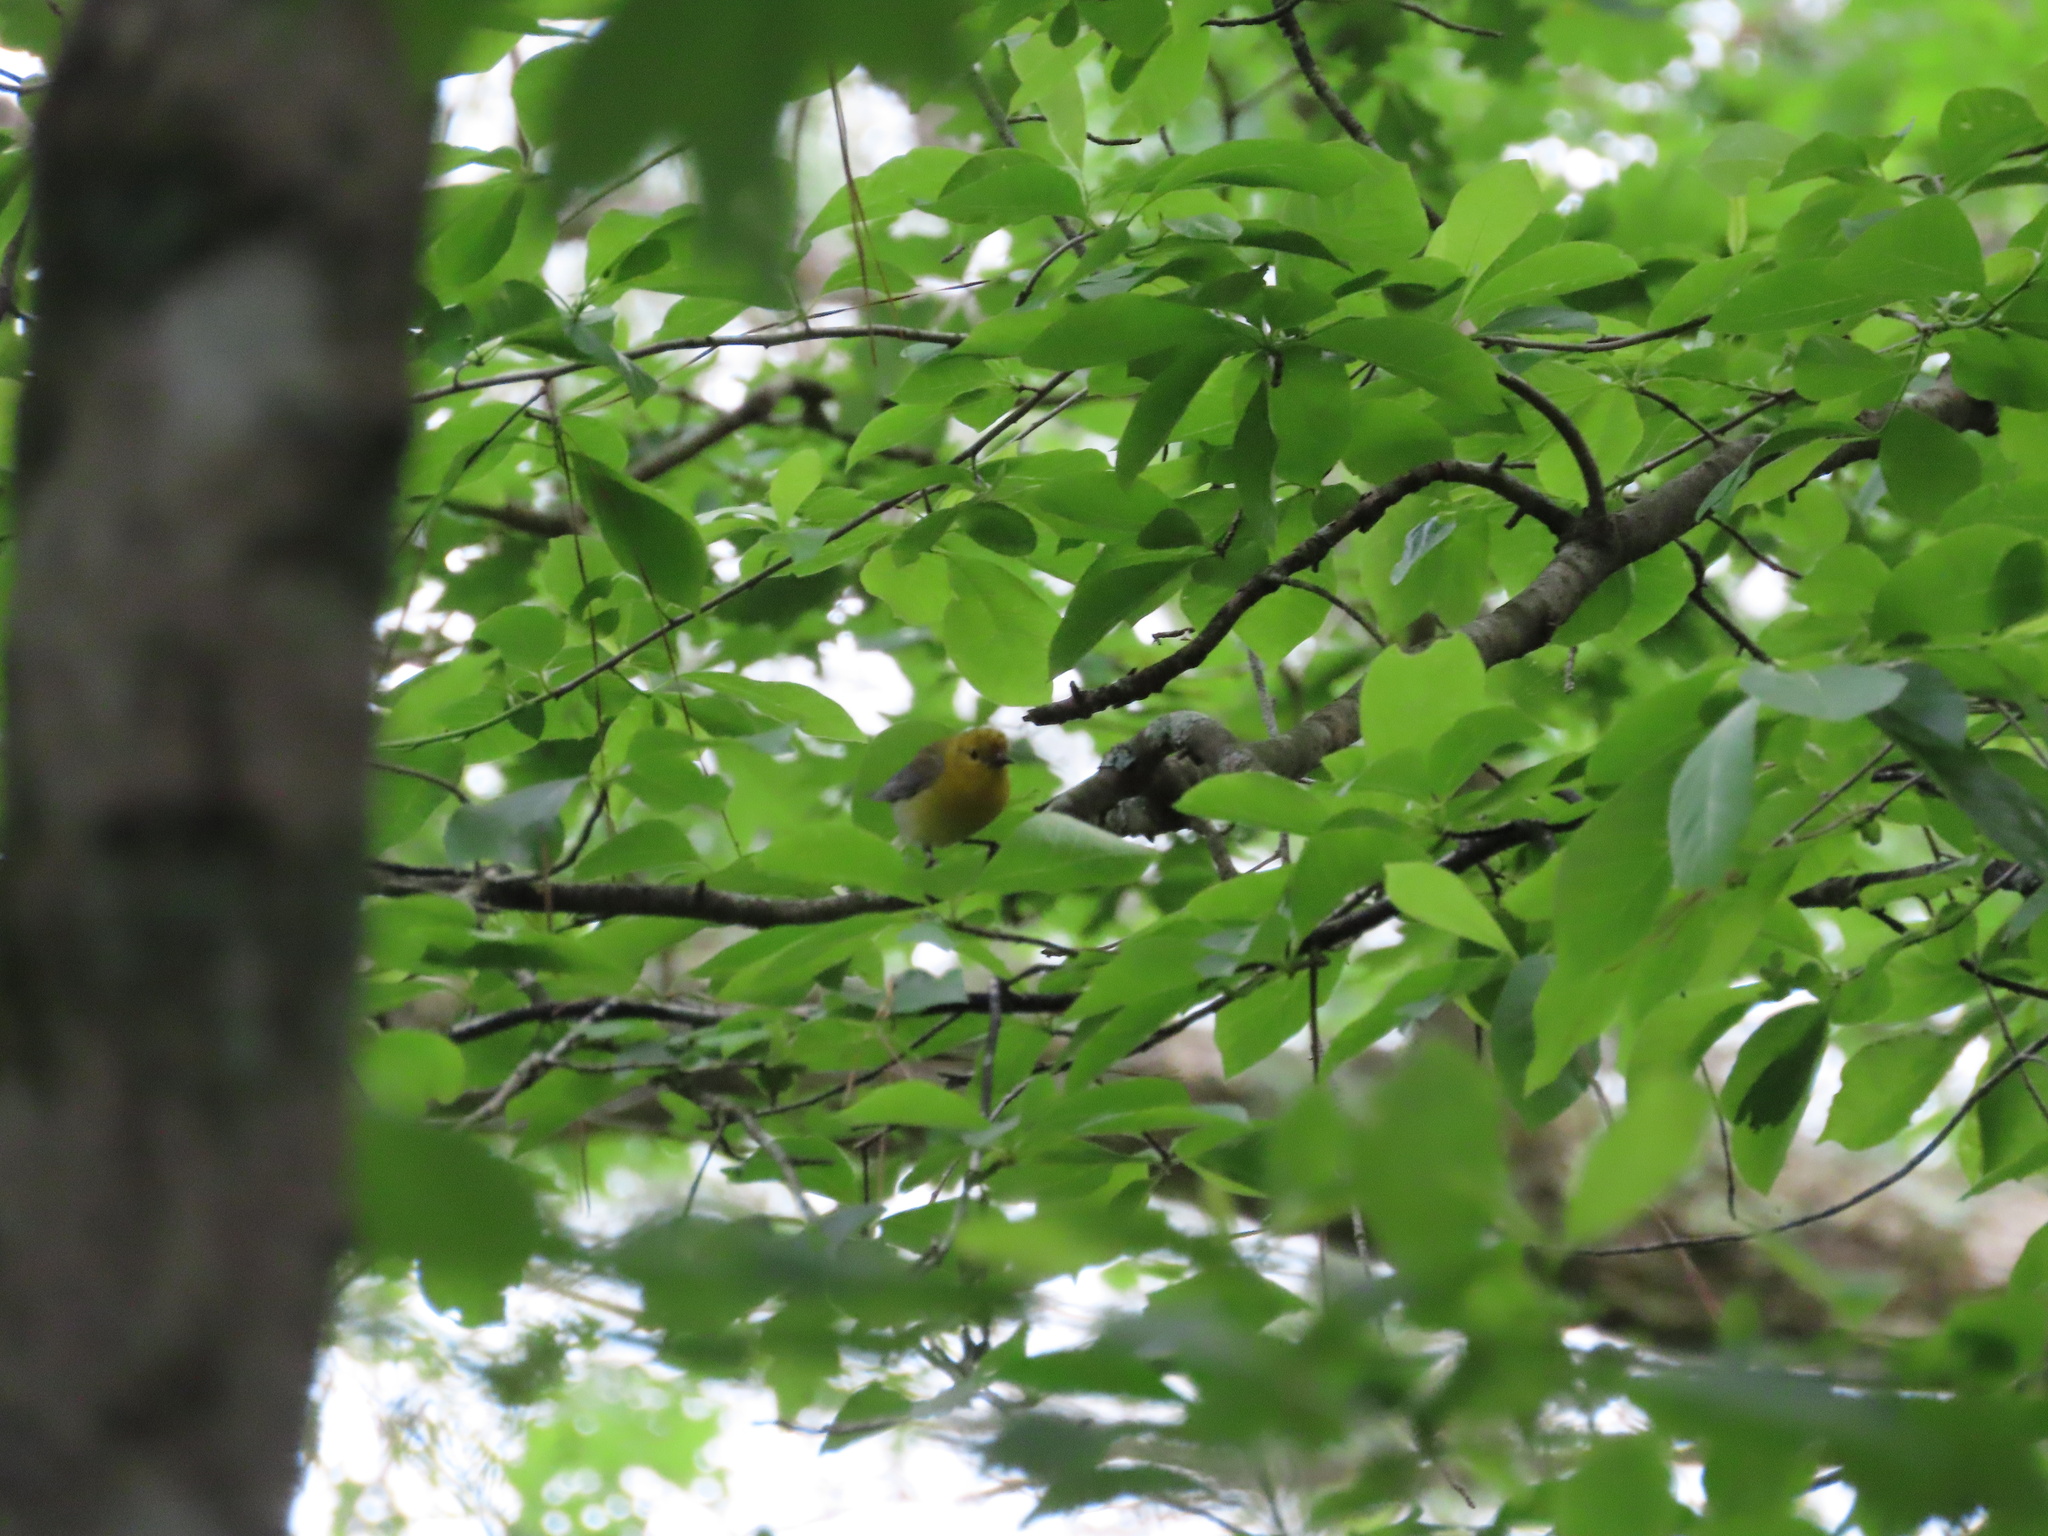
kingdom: Animalia
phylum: Chordata
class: Aves
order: Passeriformes
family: Parulidae
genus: Protonotaria
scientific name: Protonotaria citrea
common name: Prothonotary warbler
